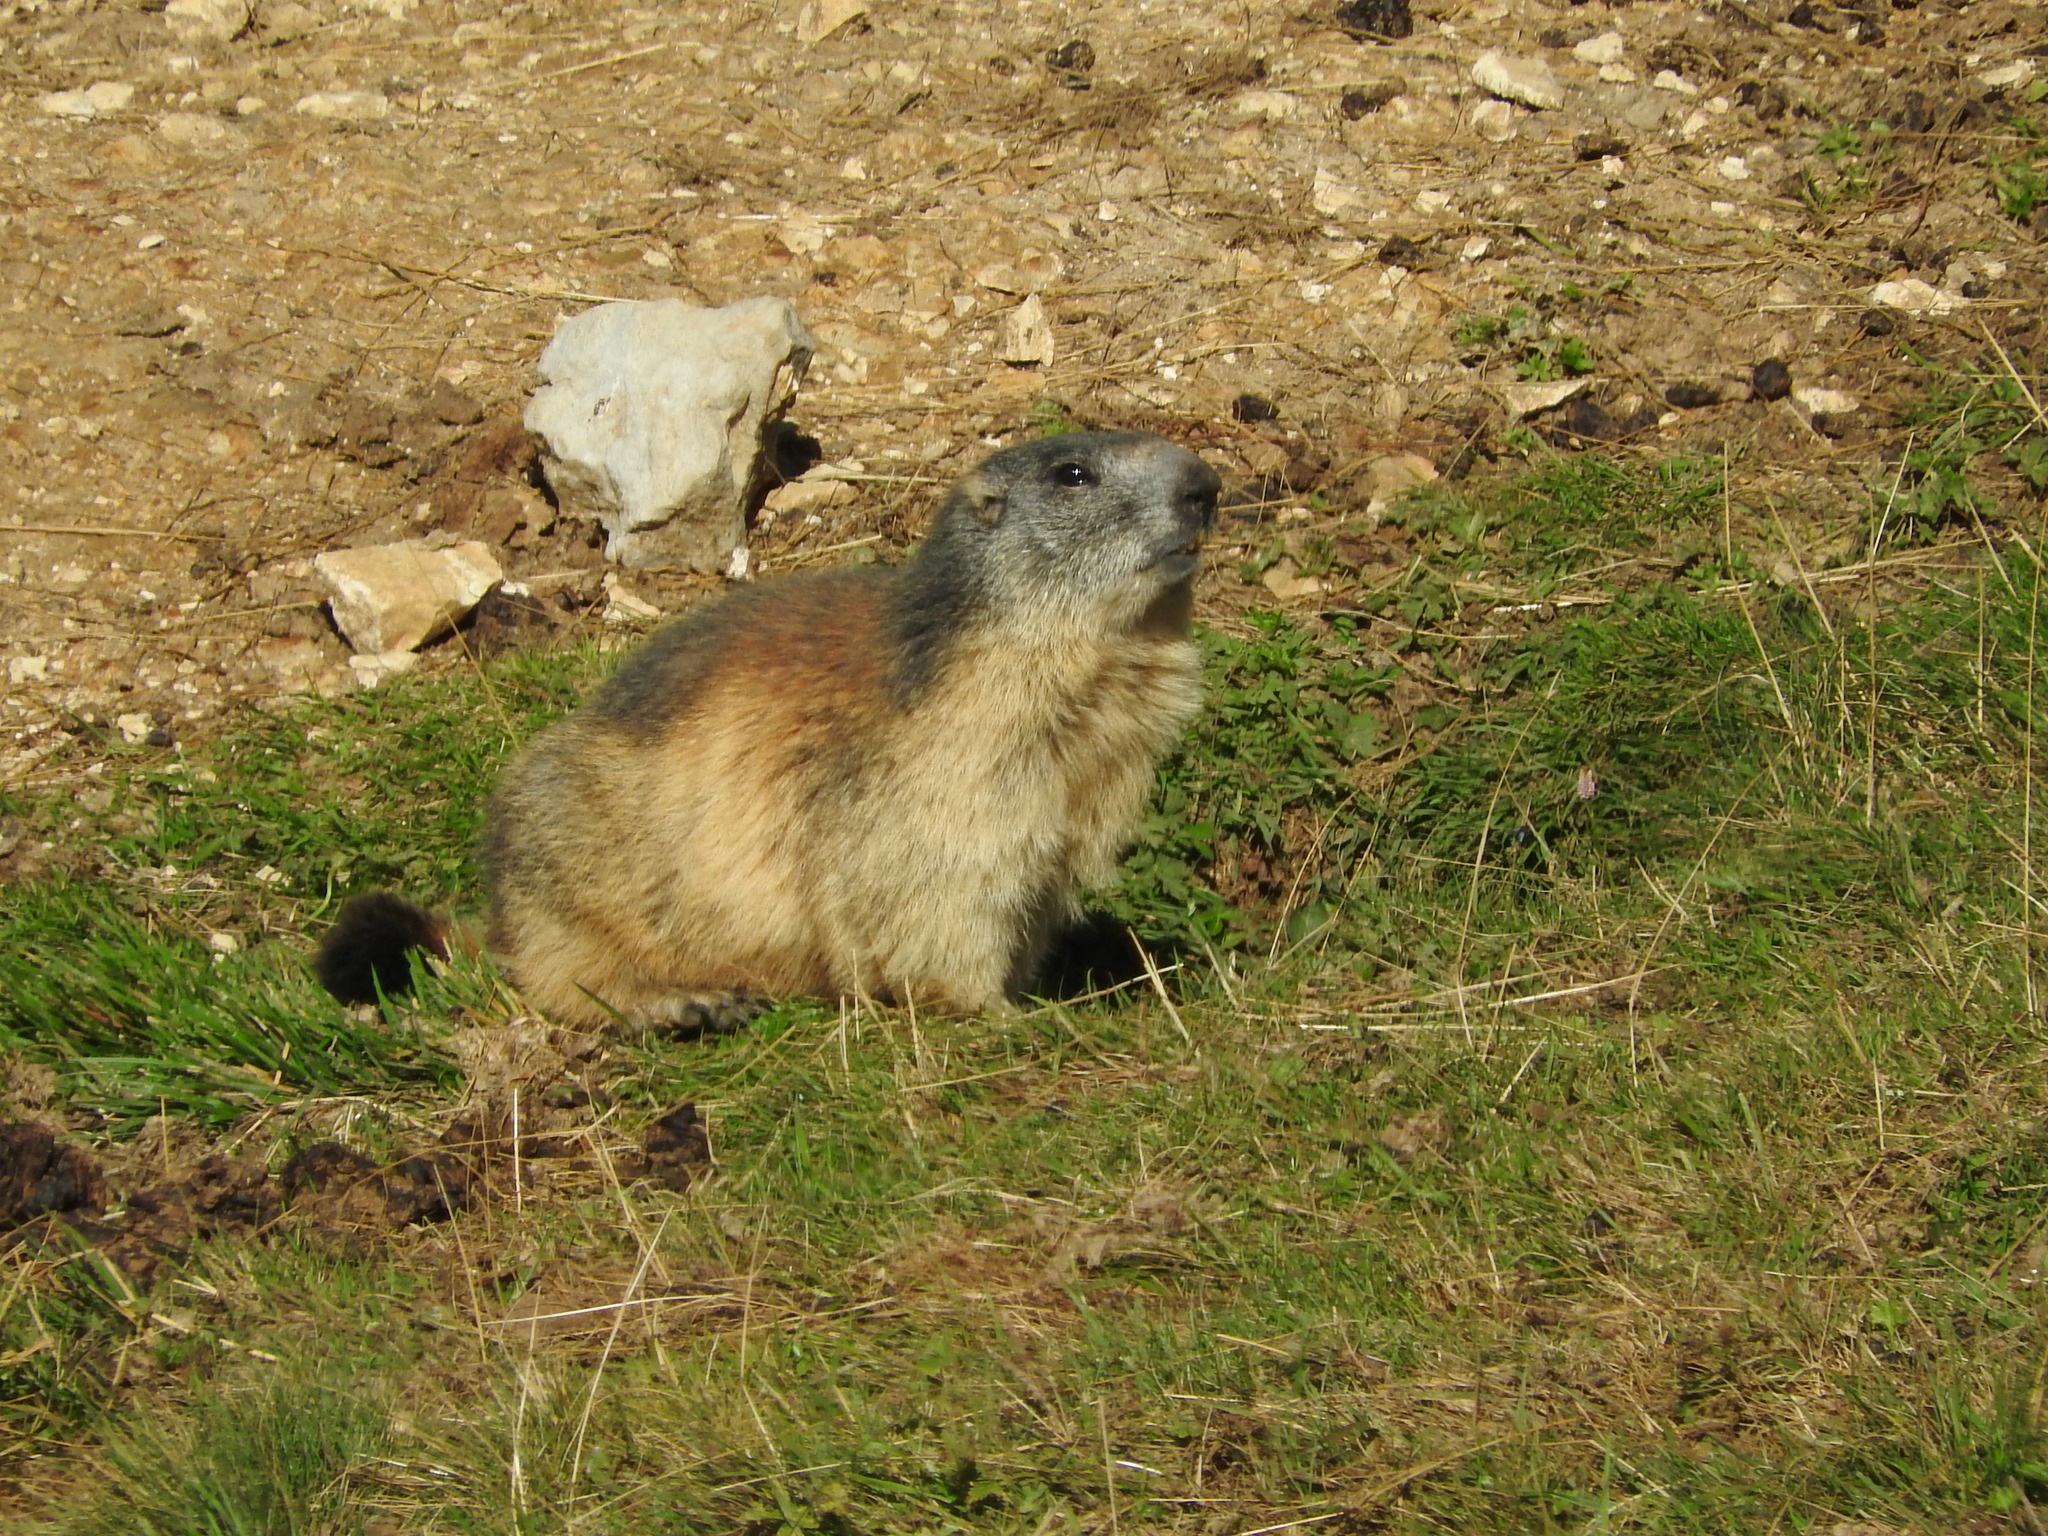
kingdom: Animalia
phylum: Chordata
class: Mammalia
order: Rodentia
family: Sciuridae
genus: Marmota
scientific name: Marmota marmota
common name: Alpine marmot
